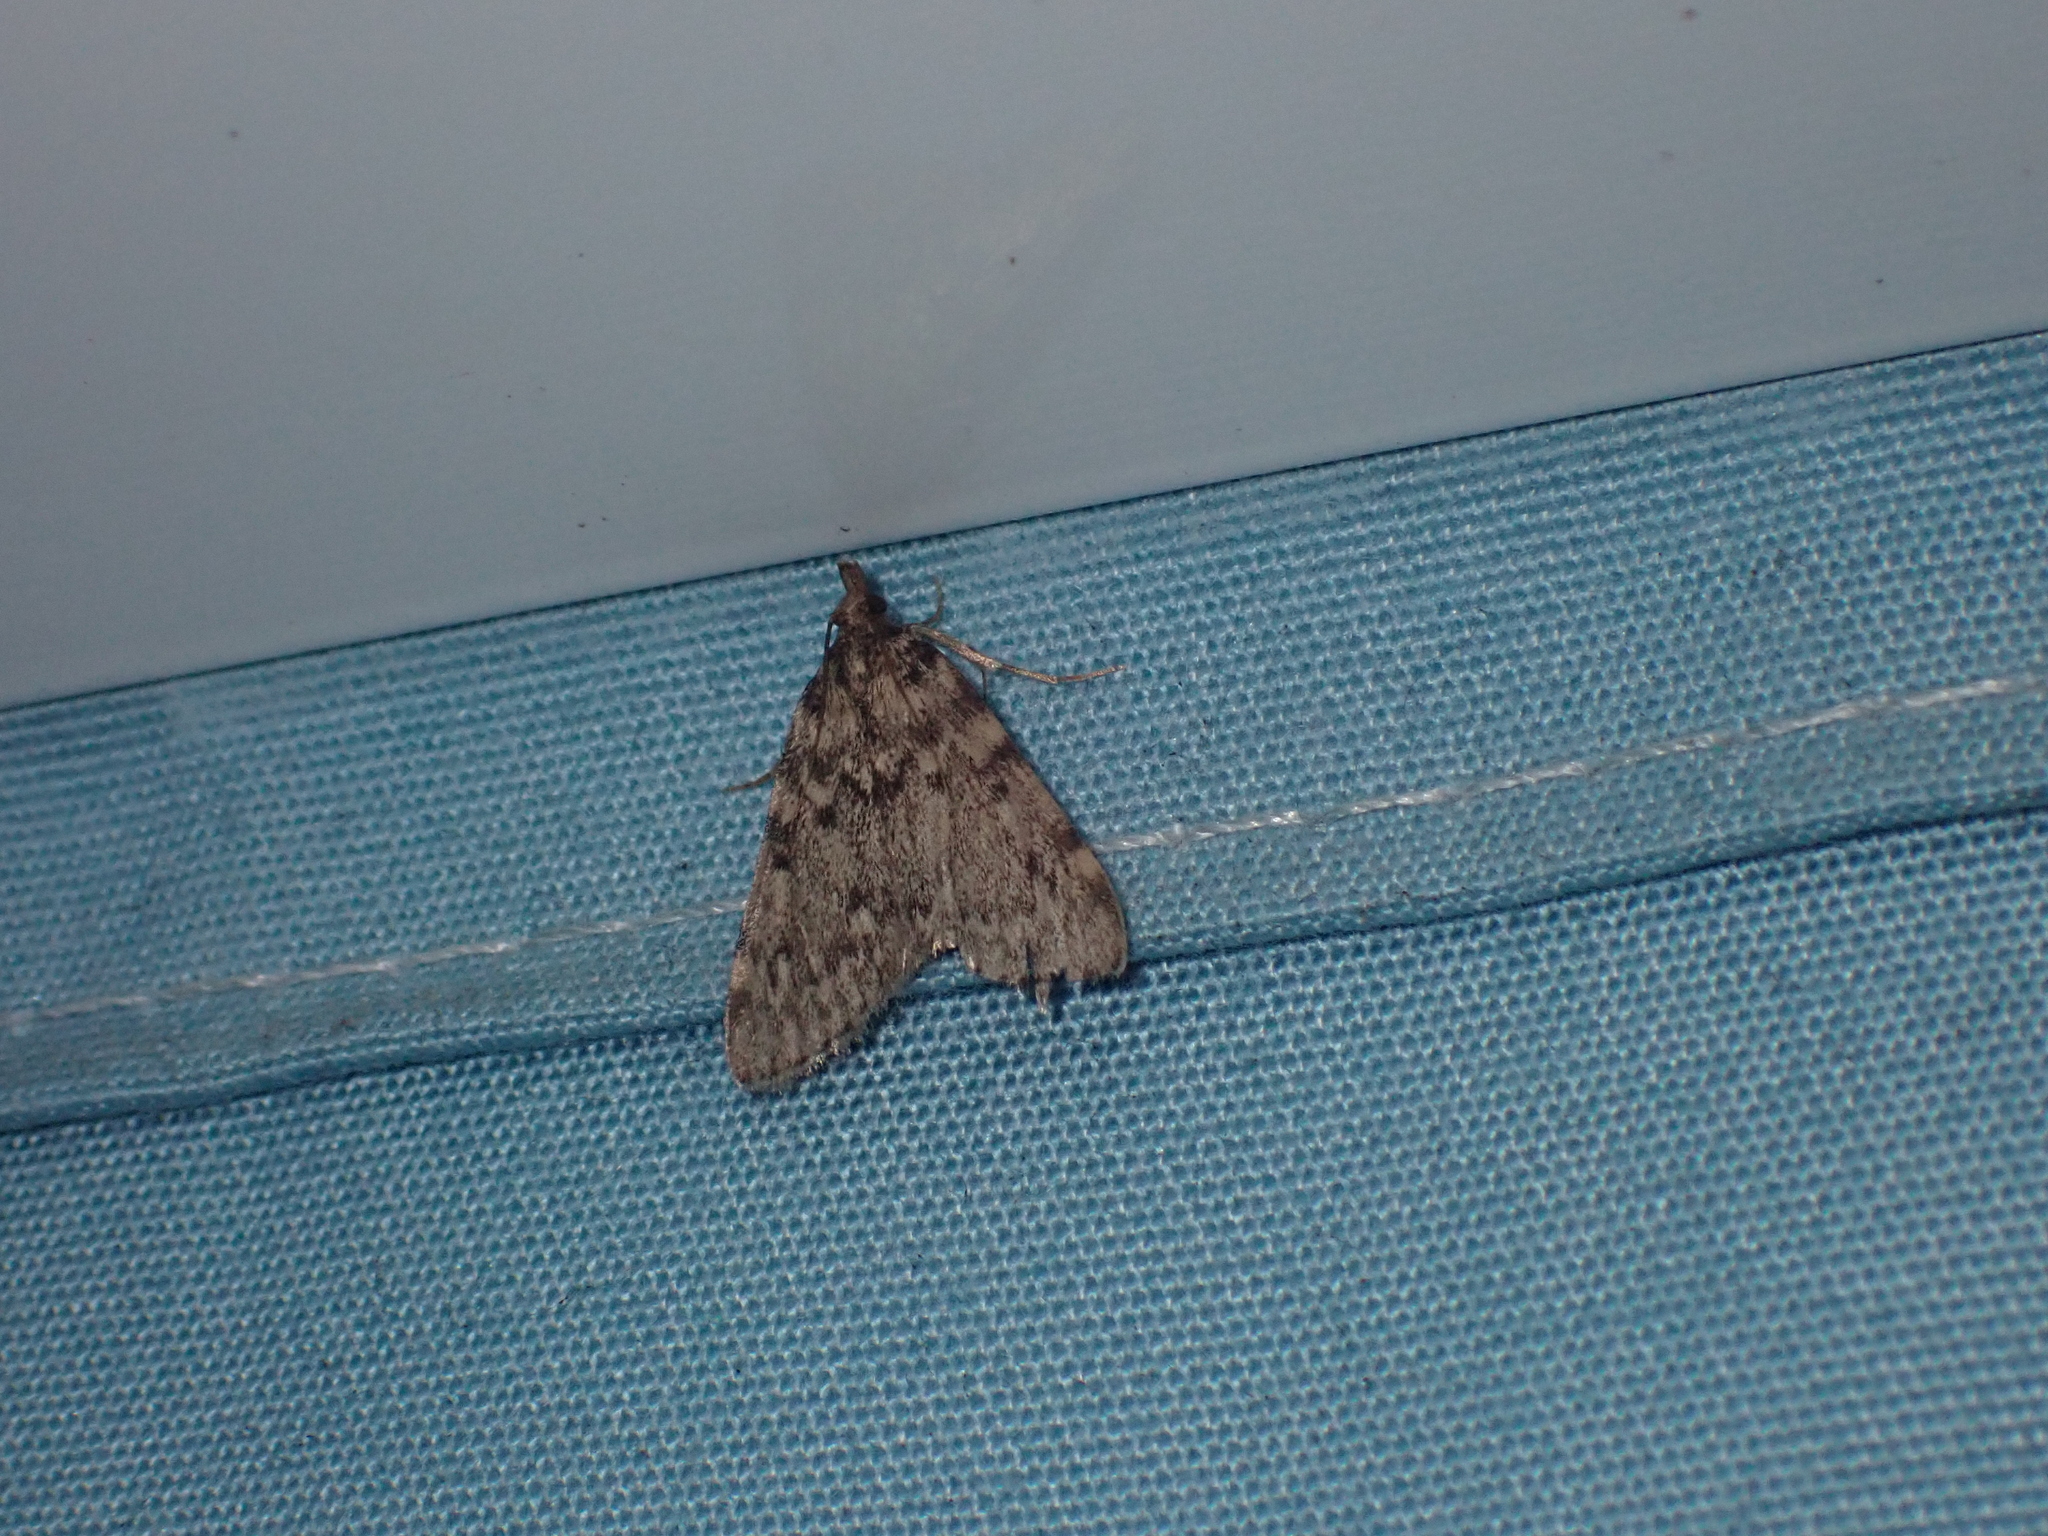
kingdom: Animalia
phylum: Arthropoda
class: Insecta
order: Lepidoptera
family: Pyralidae
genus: Aglossa
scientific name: Aglossa pinguinalis
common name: Large tabby
